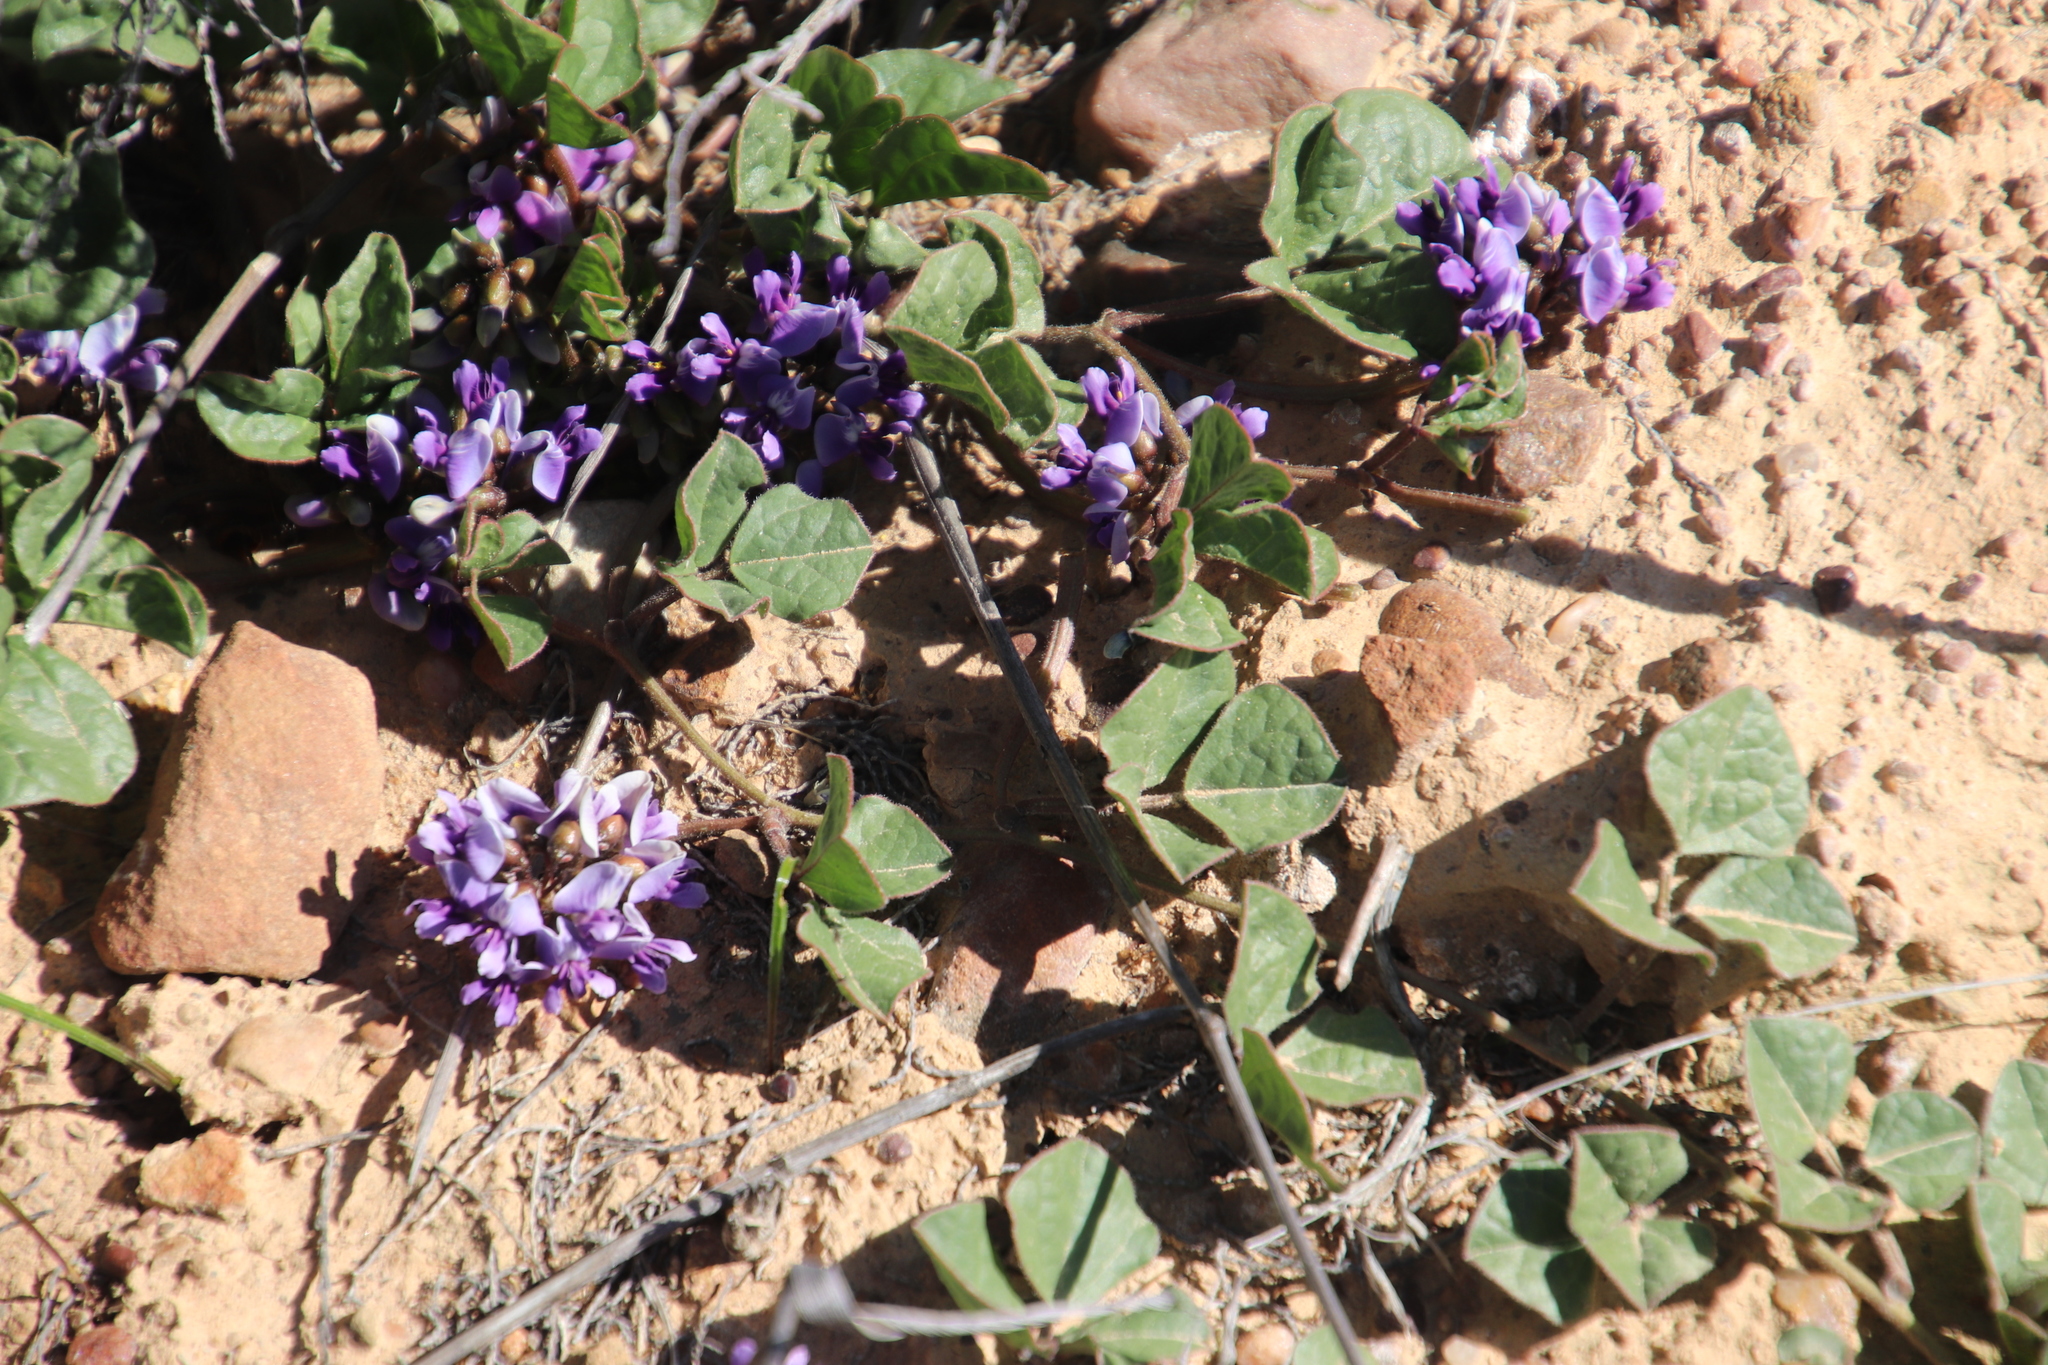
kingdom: Plantae
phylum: Tracheophyta
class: Magnoliopsida
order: Fabales
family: Fabaceae
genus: Dolichos
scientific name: Dolichos decumbens
